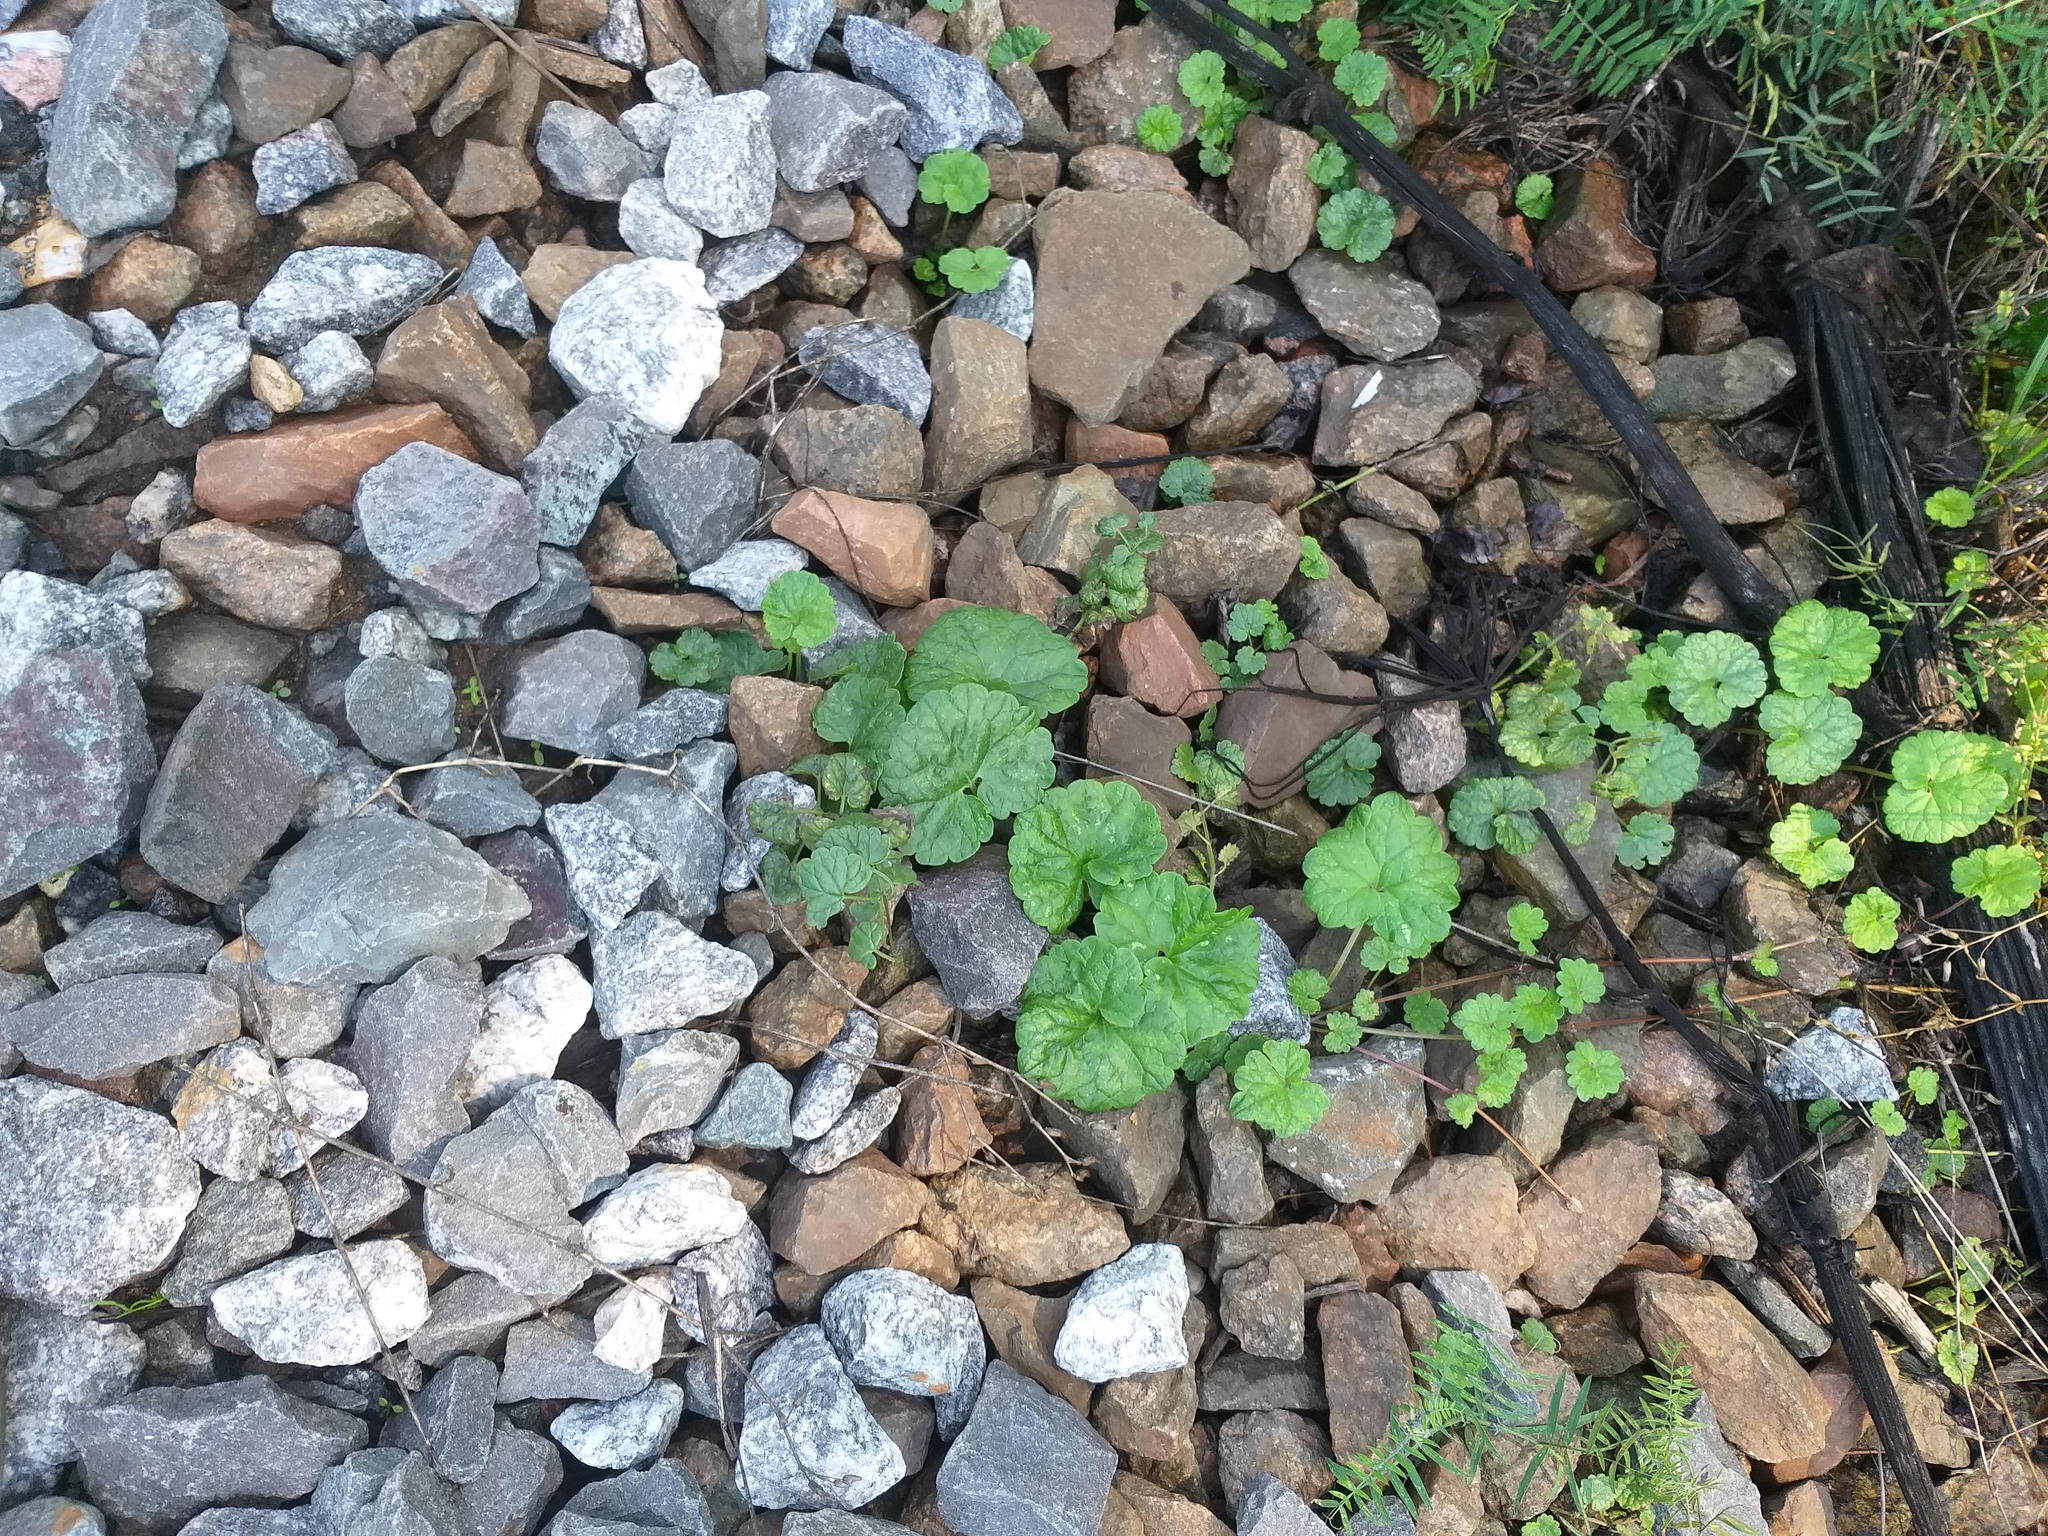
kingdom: Plantae
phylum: Tracheophyta
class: Magnoliopsida
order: Lamiales
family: Lamiaceae
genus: Glechoma
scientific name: Glechoma hederacea
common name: Ground ivy
